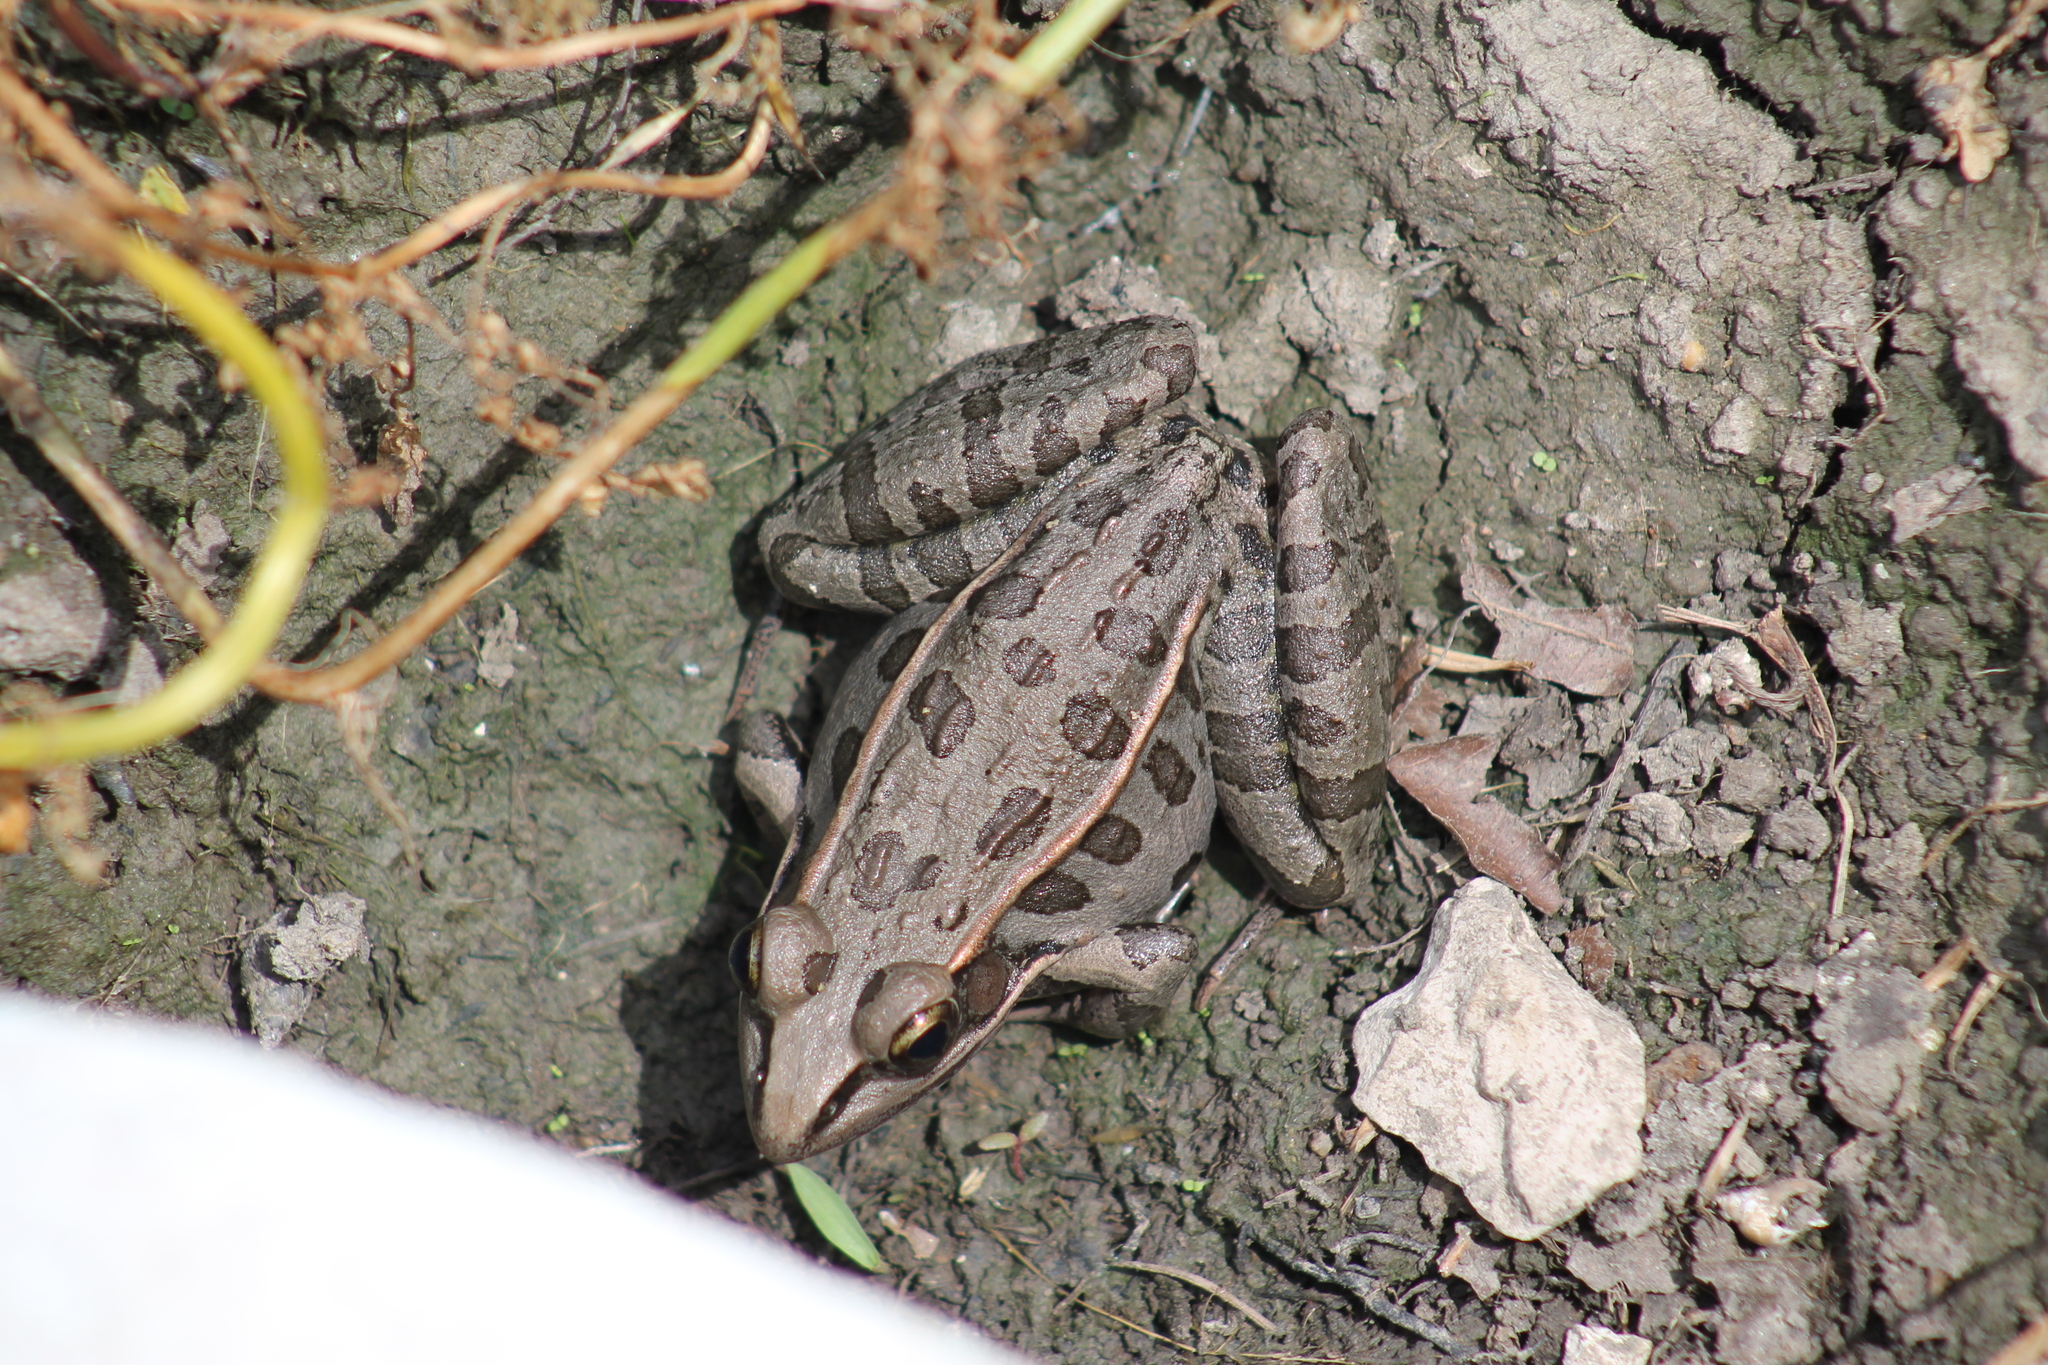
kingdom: Animalia
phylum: Chordata
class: Amphibia
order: Anura
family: Ranidae
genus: Lithobates
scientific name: Lithobates sphenocephalus
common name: Southern leopard frog
